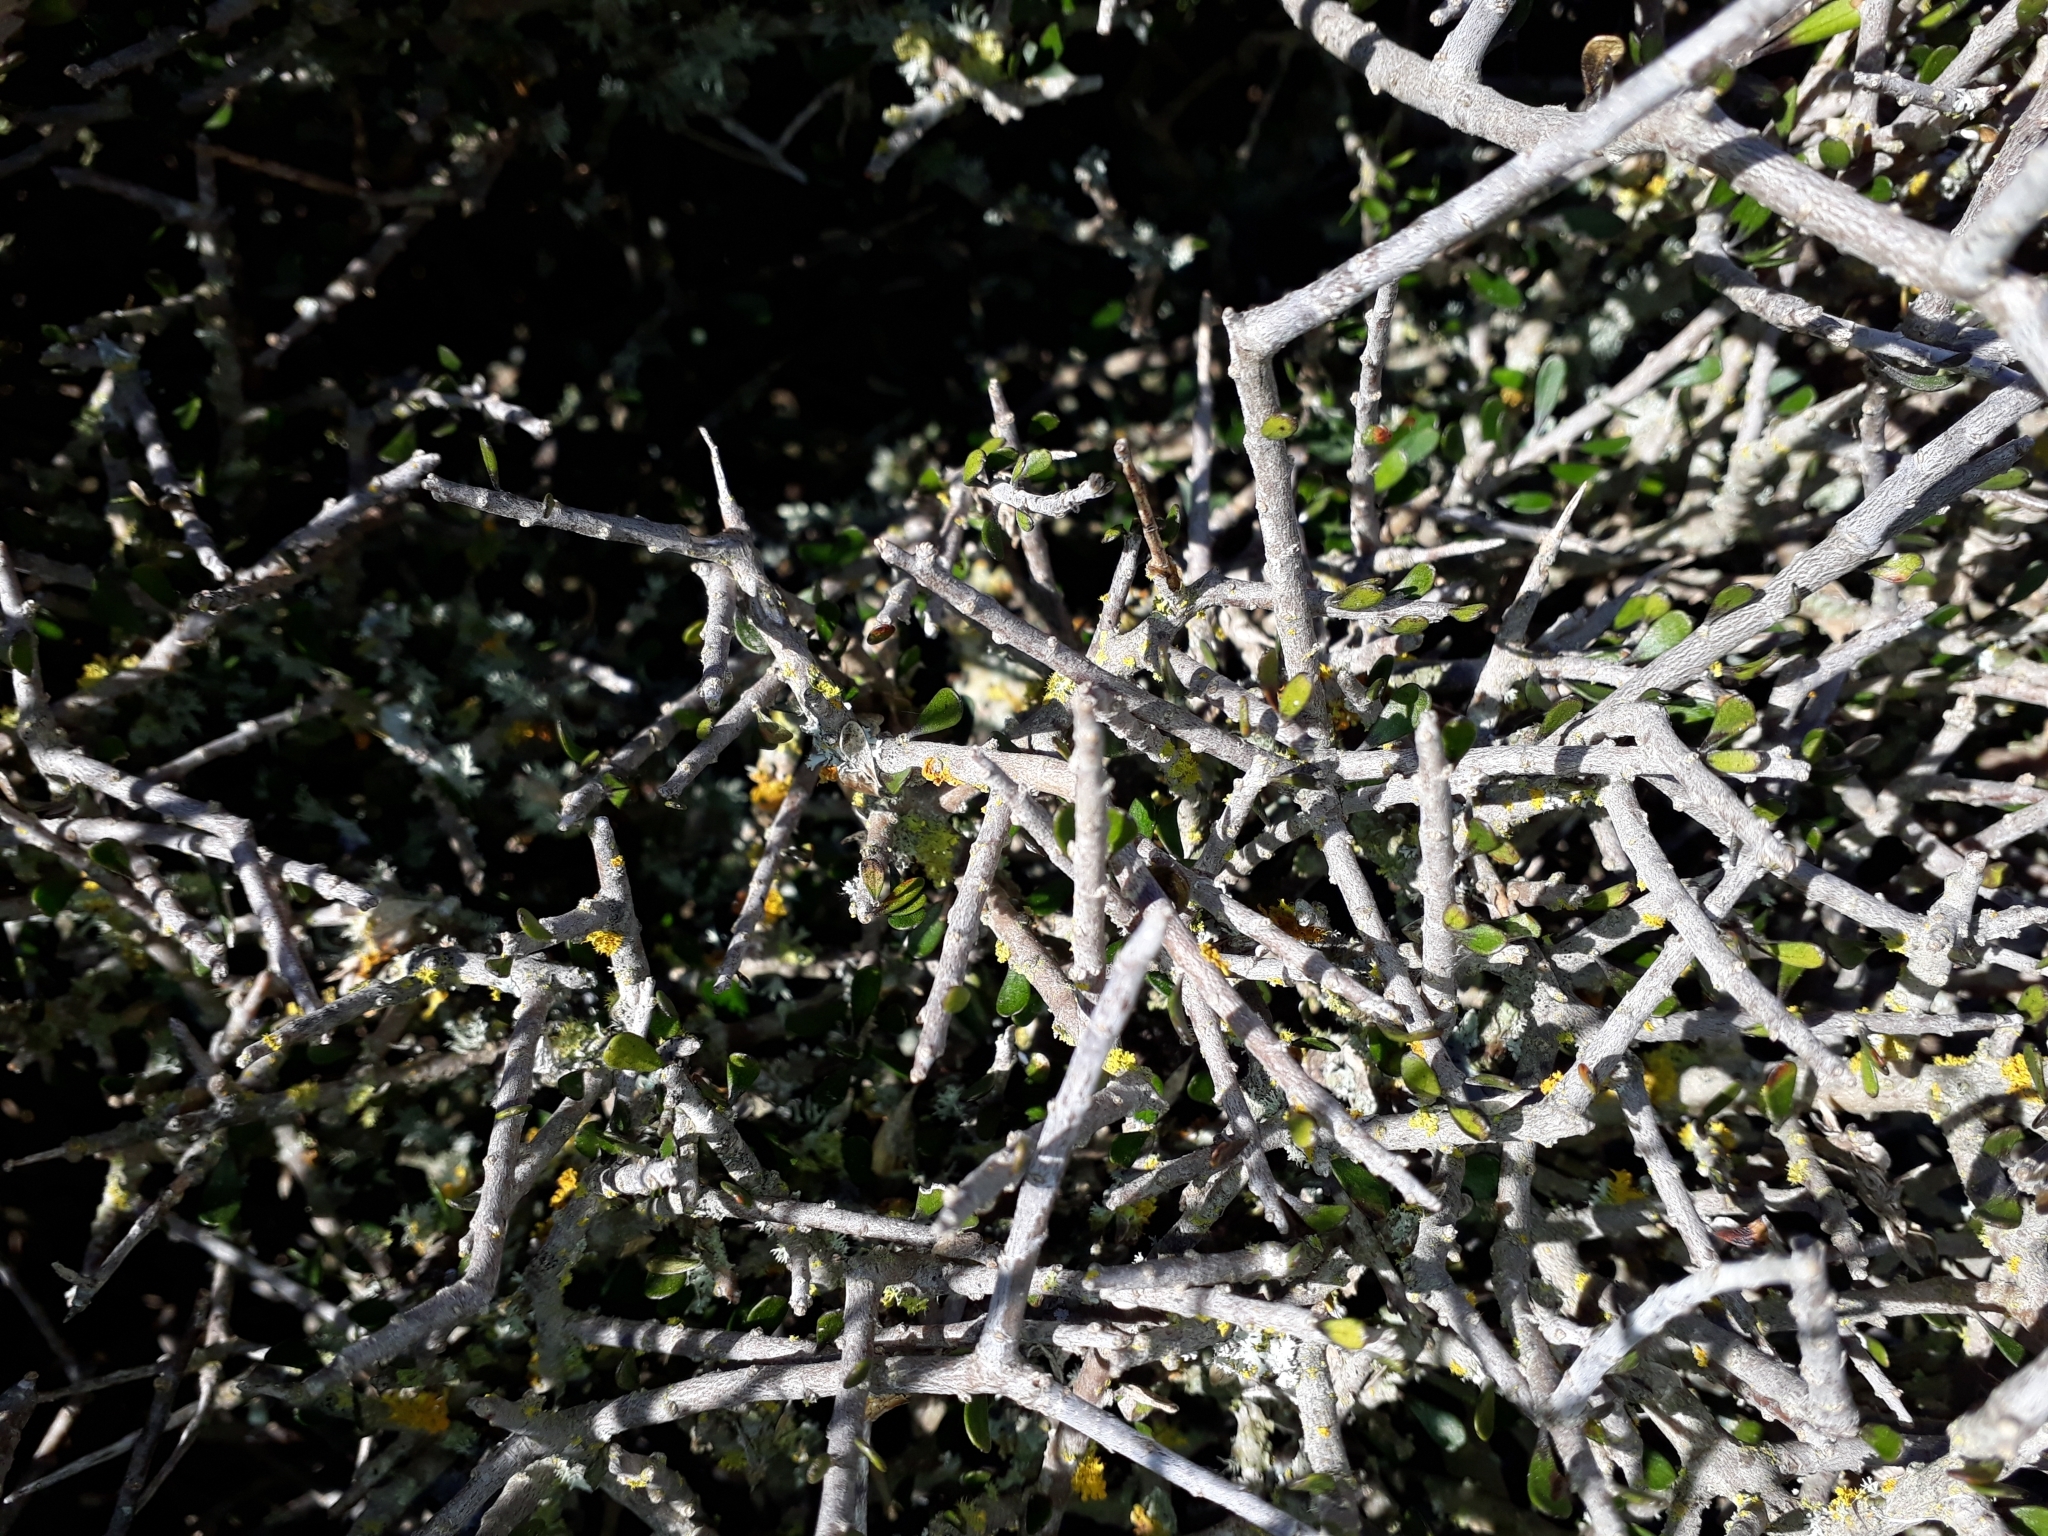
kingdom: Plantae
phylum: Tracheophyta
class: Magnoliopsida
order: Malpighiales
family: Violaceae
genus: Melicytus
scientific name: Melicytus alpinus
